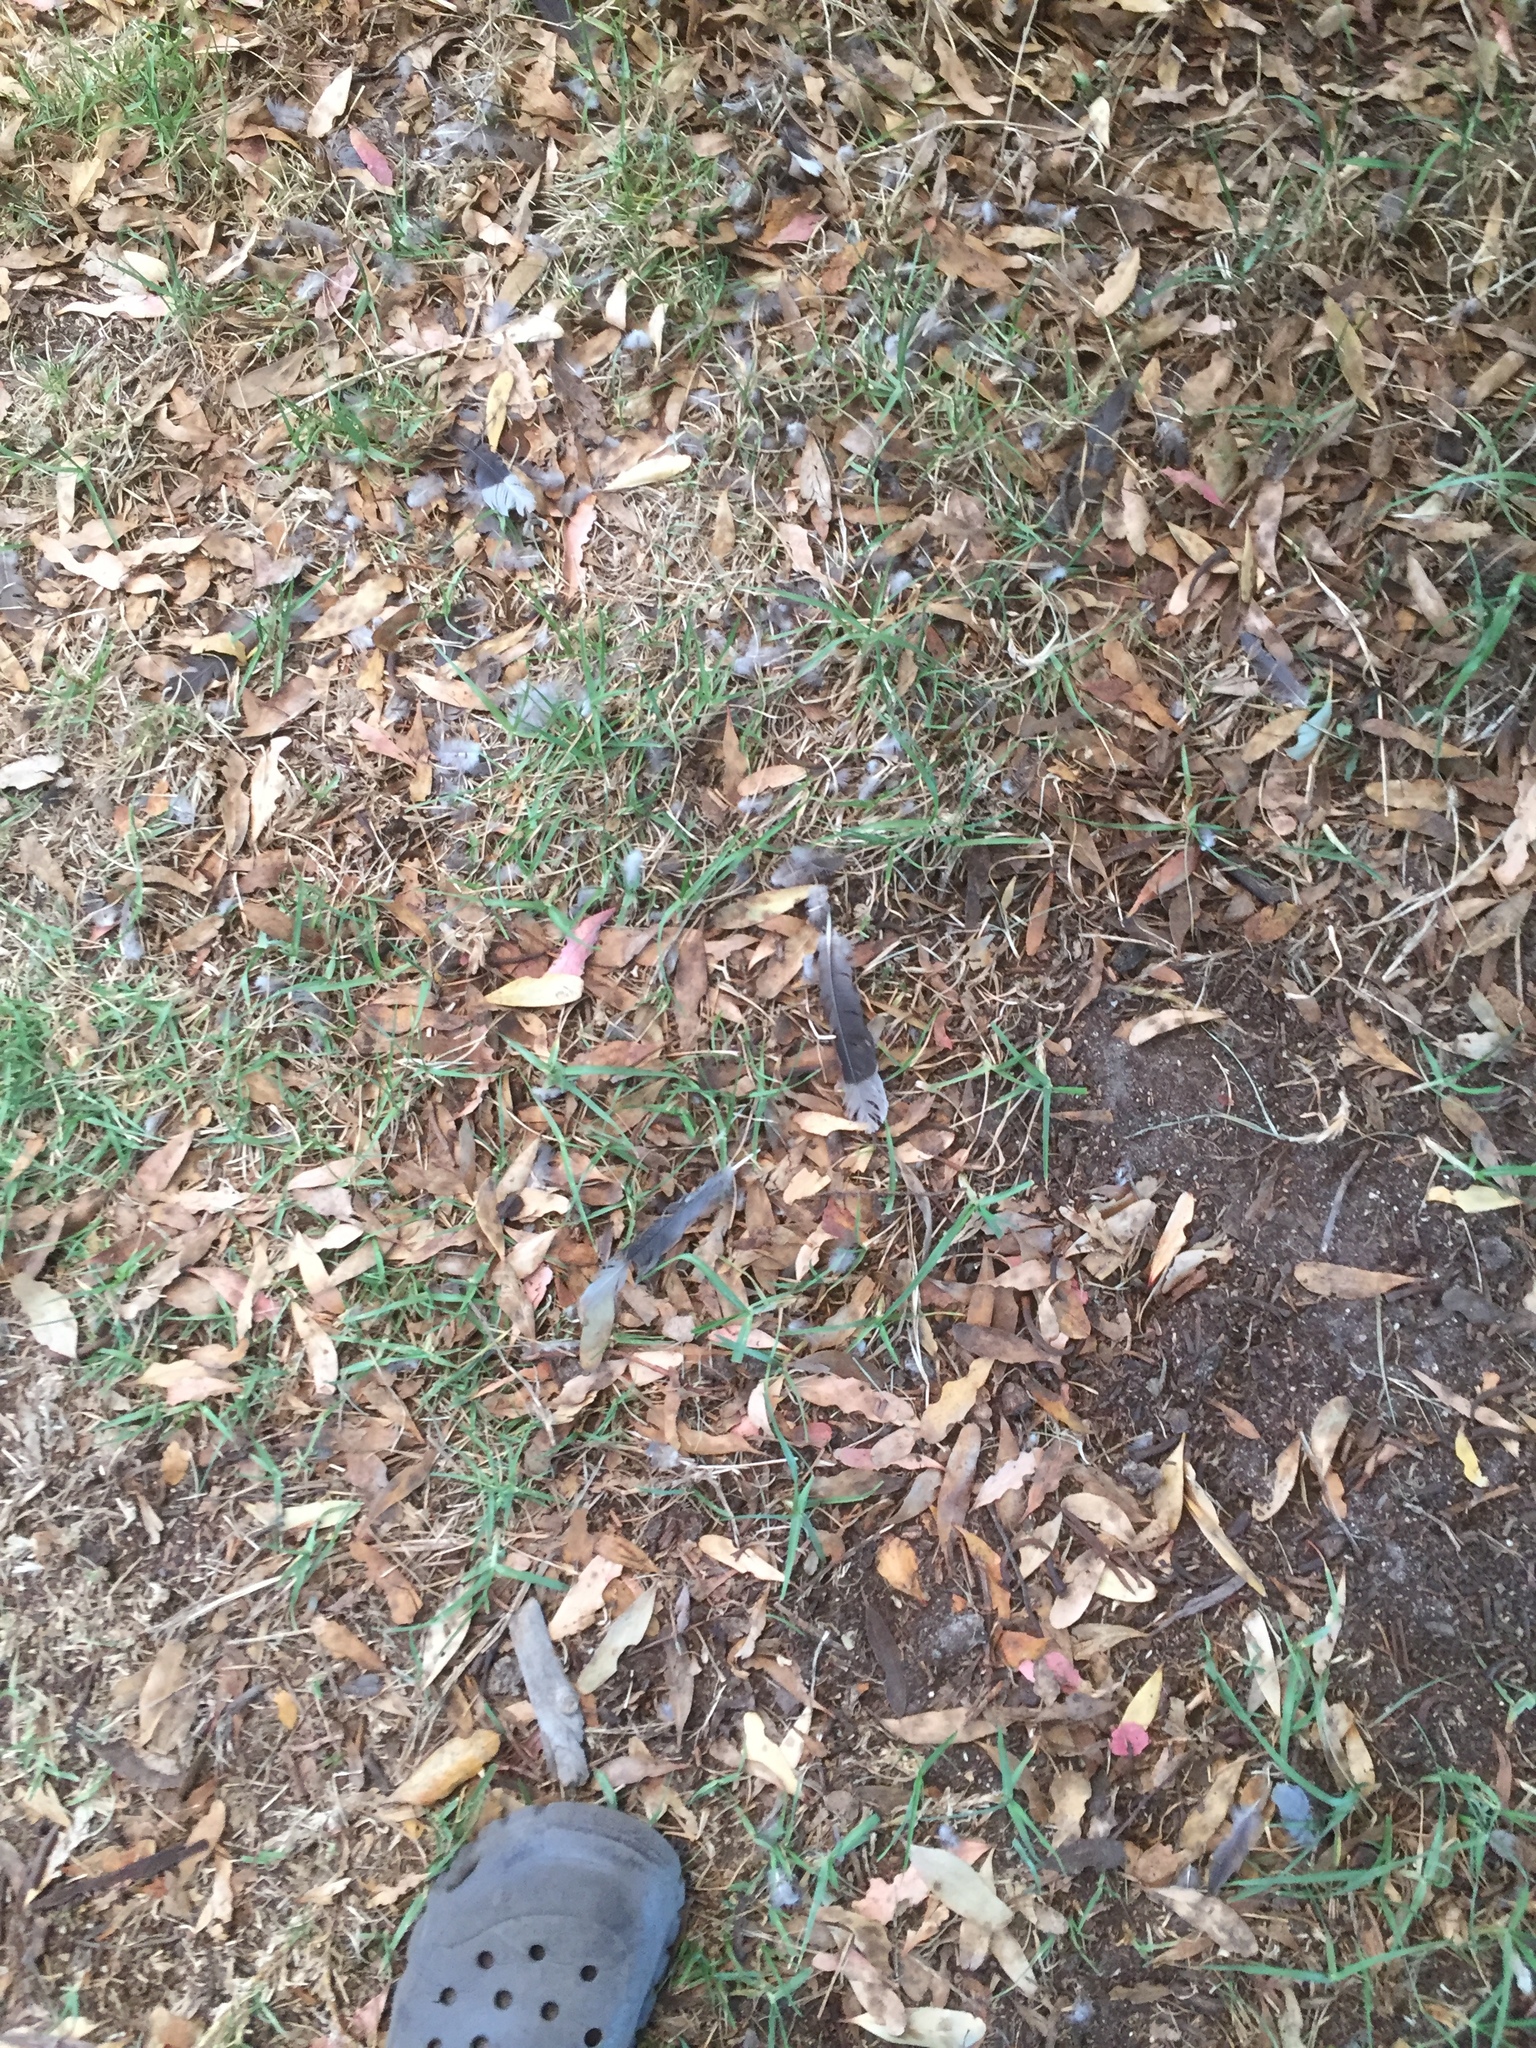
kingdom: Animalia
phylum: Chordata
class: Aves
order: Columbiformes
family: Columbidae
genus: Streptopelia
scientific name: Streptopelia semitorquata
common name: Red-eyed dove
